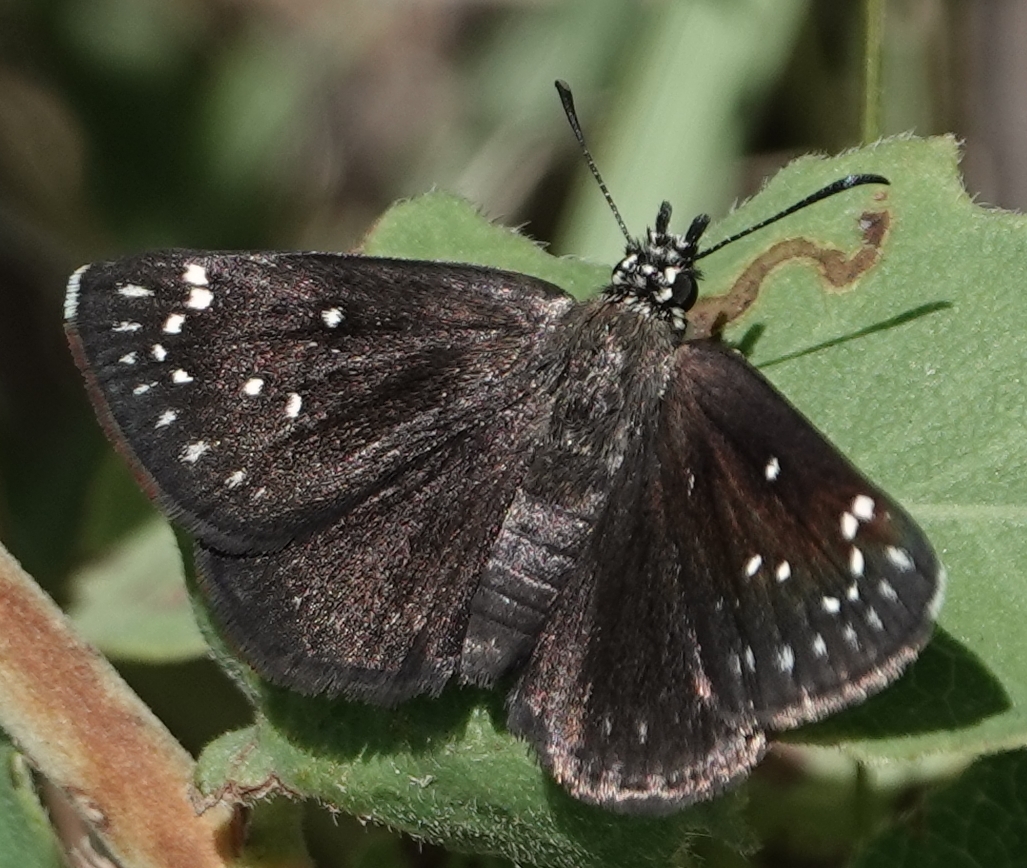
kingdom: Animalia
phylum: Arthropoda
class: Insecta
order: Lepidoptera
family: Hesperiidae
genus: Pholisora
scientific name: Pholisora catullus
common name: Common sootywing
